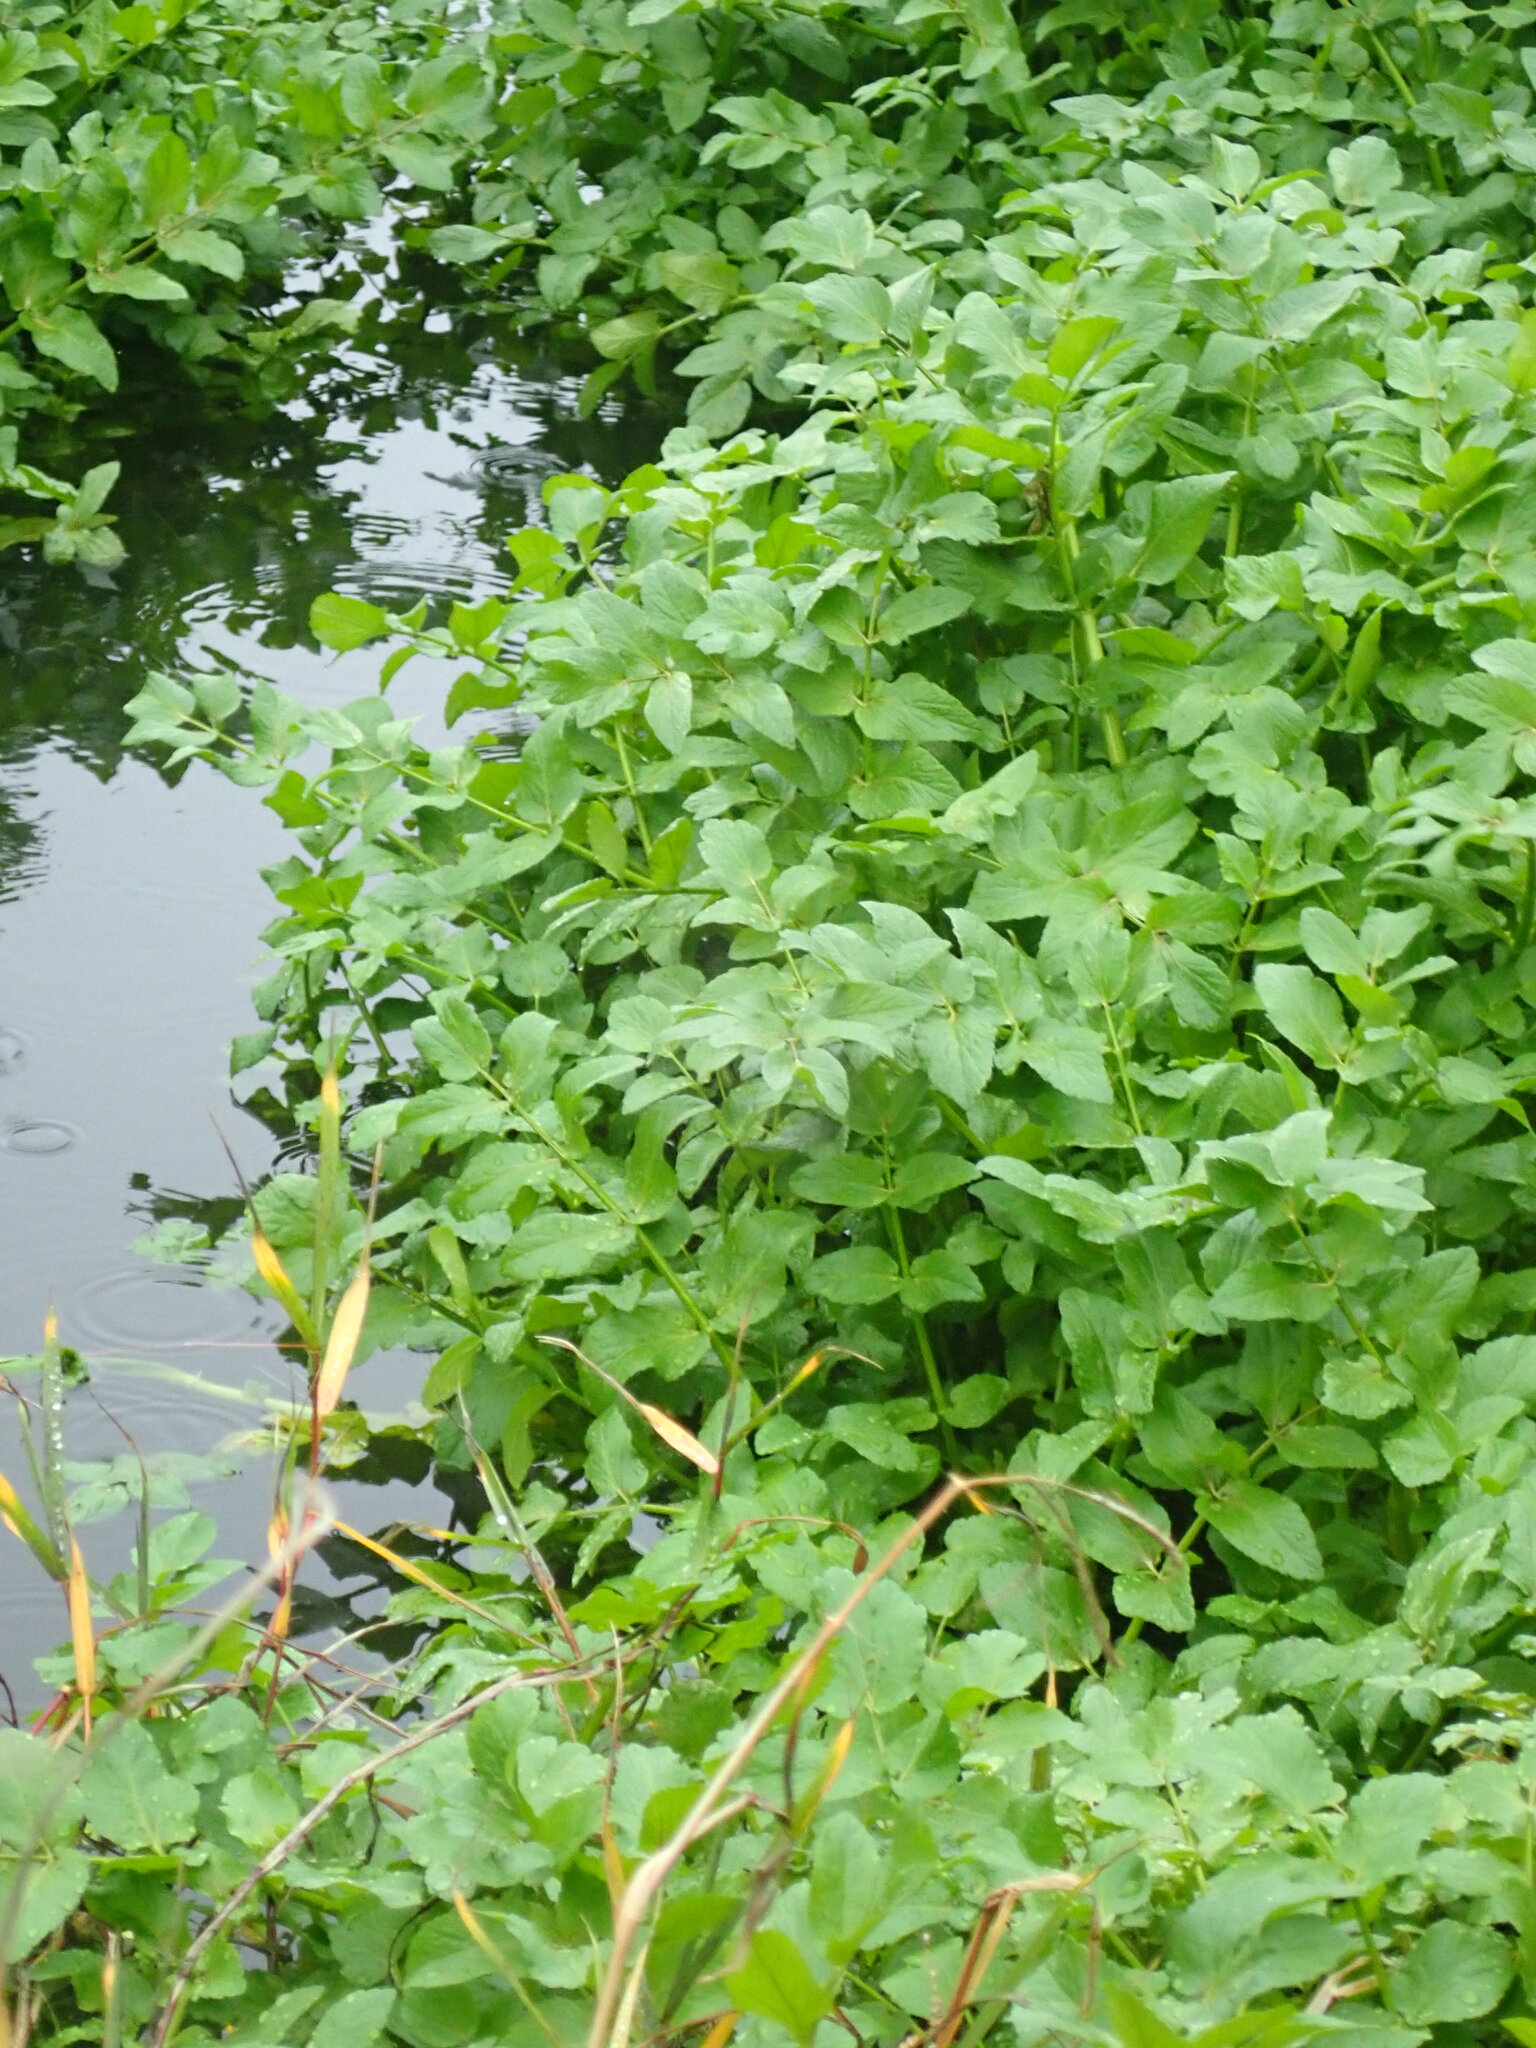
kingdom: Plantae
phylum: Tracheophyta
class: Magnoliopsida
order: Apiales
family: Apiaceae
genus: Helosciadium
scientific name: Helosciadium nodiflorum
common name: Fool's-watercress
